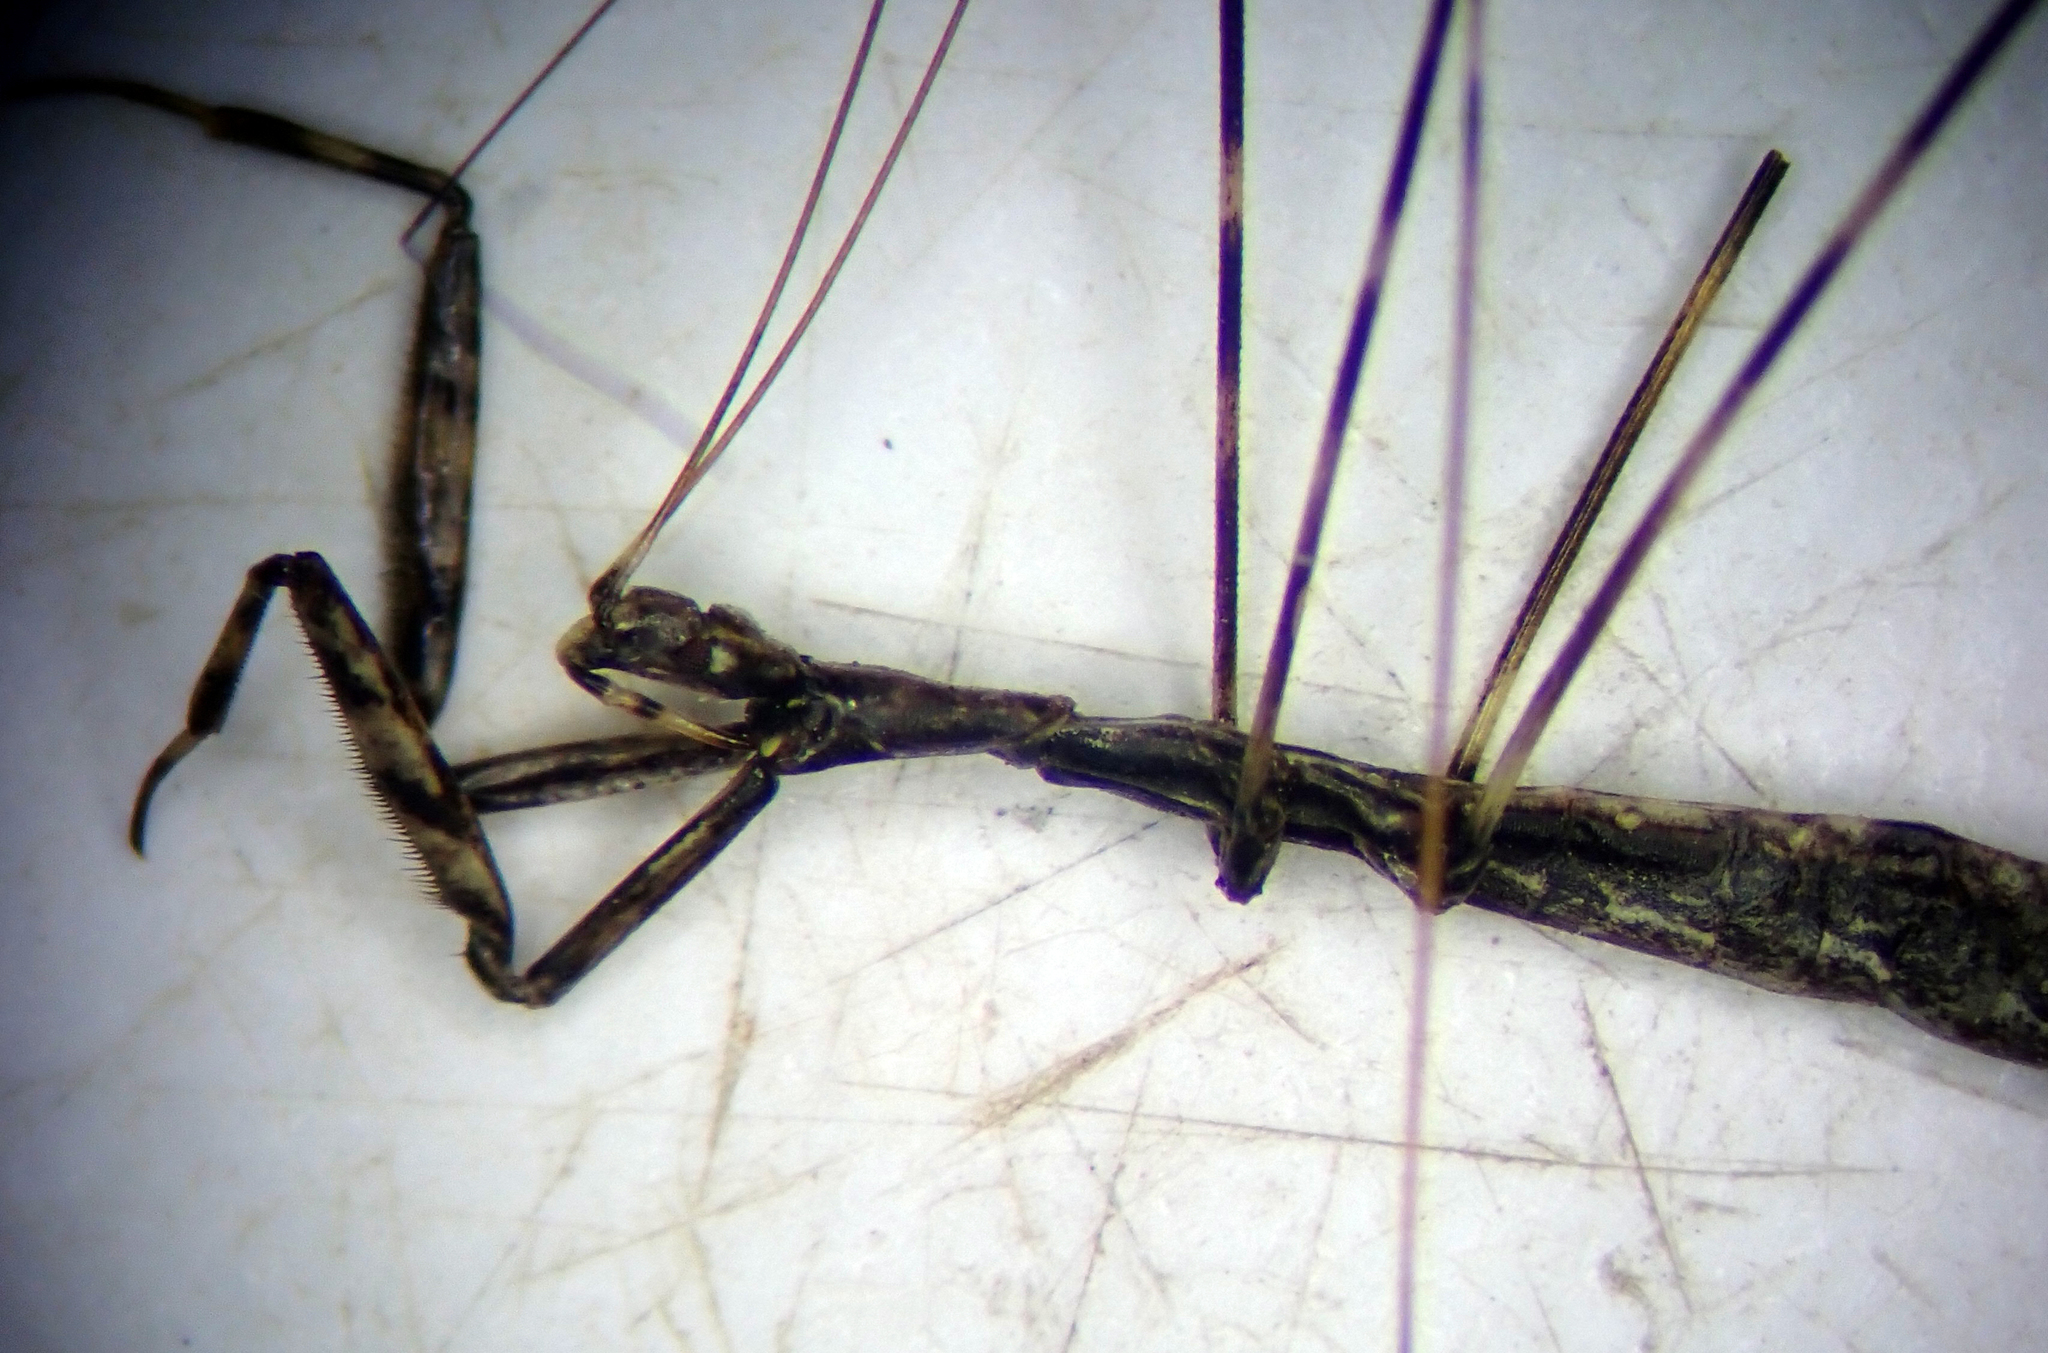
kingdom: Animalia
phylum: Arthropoda
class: Insecta
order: Hemiptera
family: Reduviidae
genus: Ploiaria
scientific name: Ploiaria antipodum
